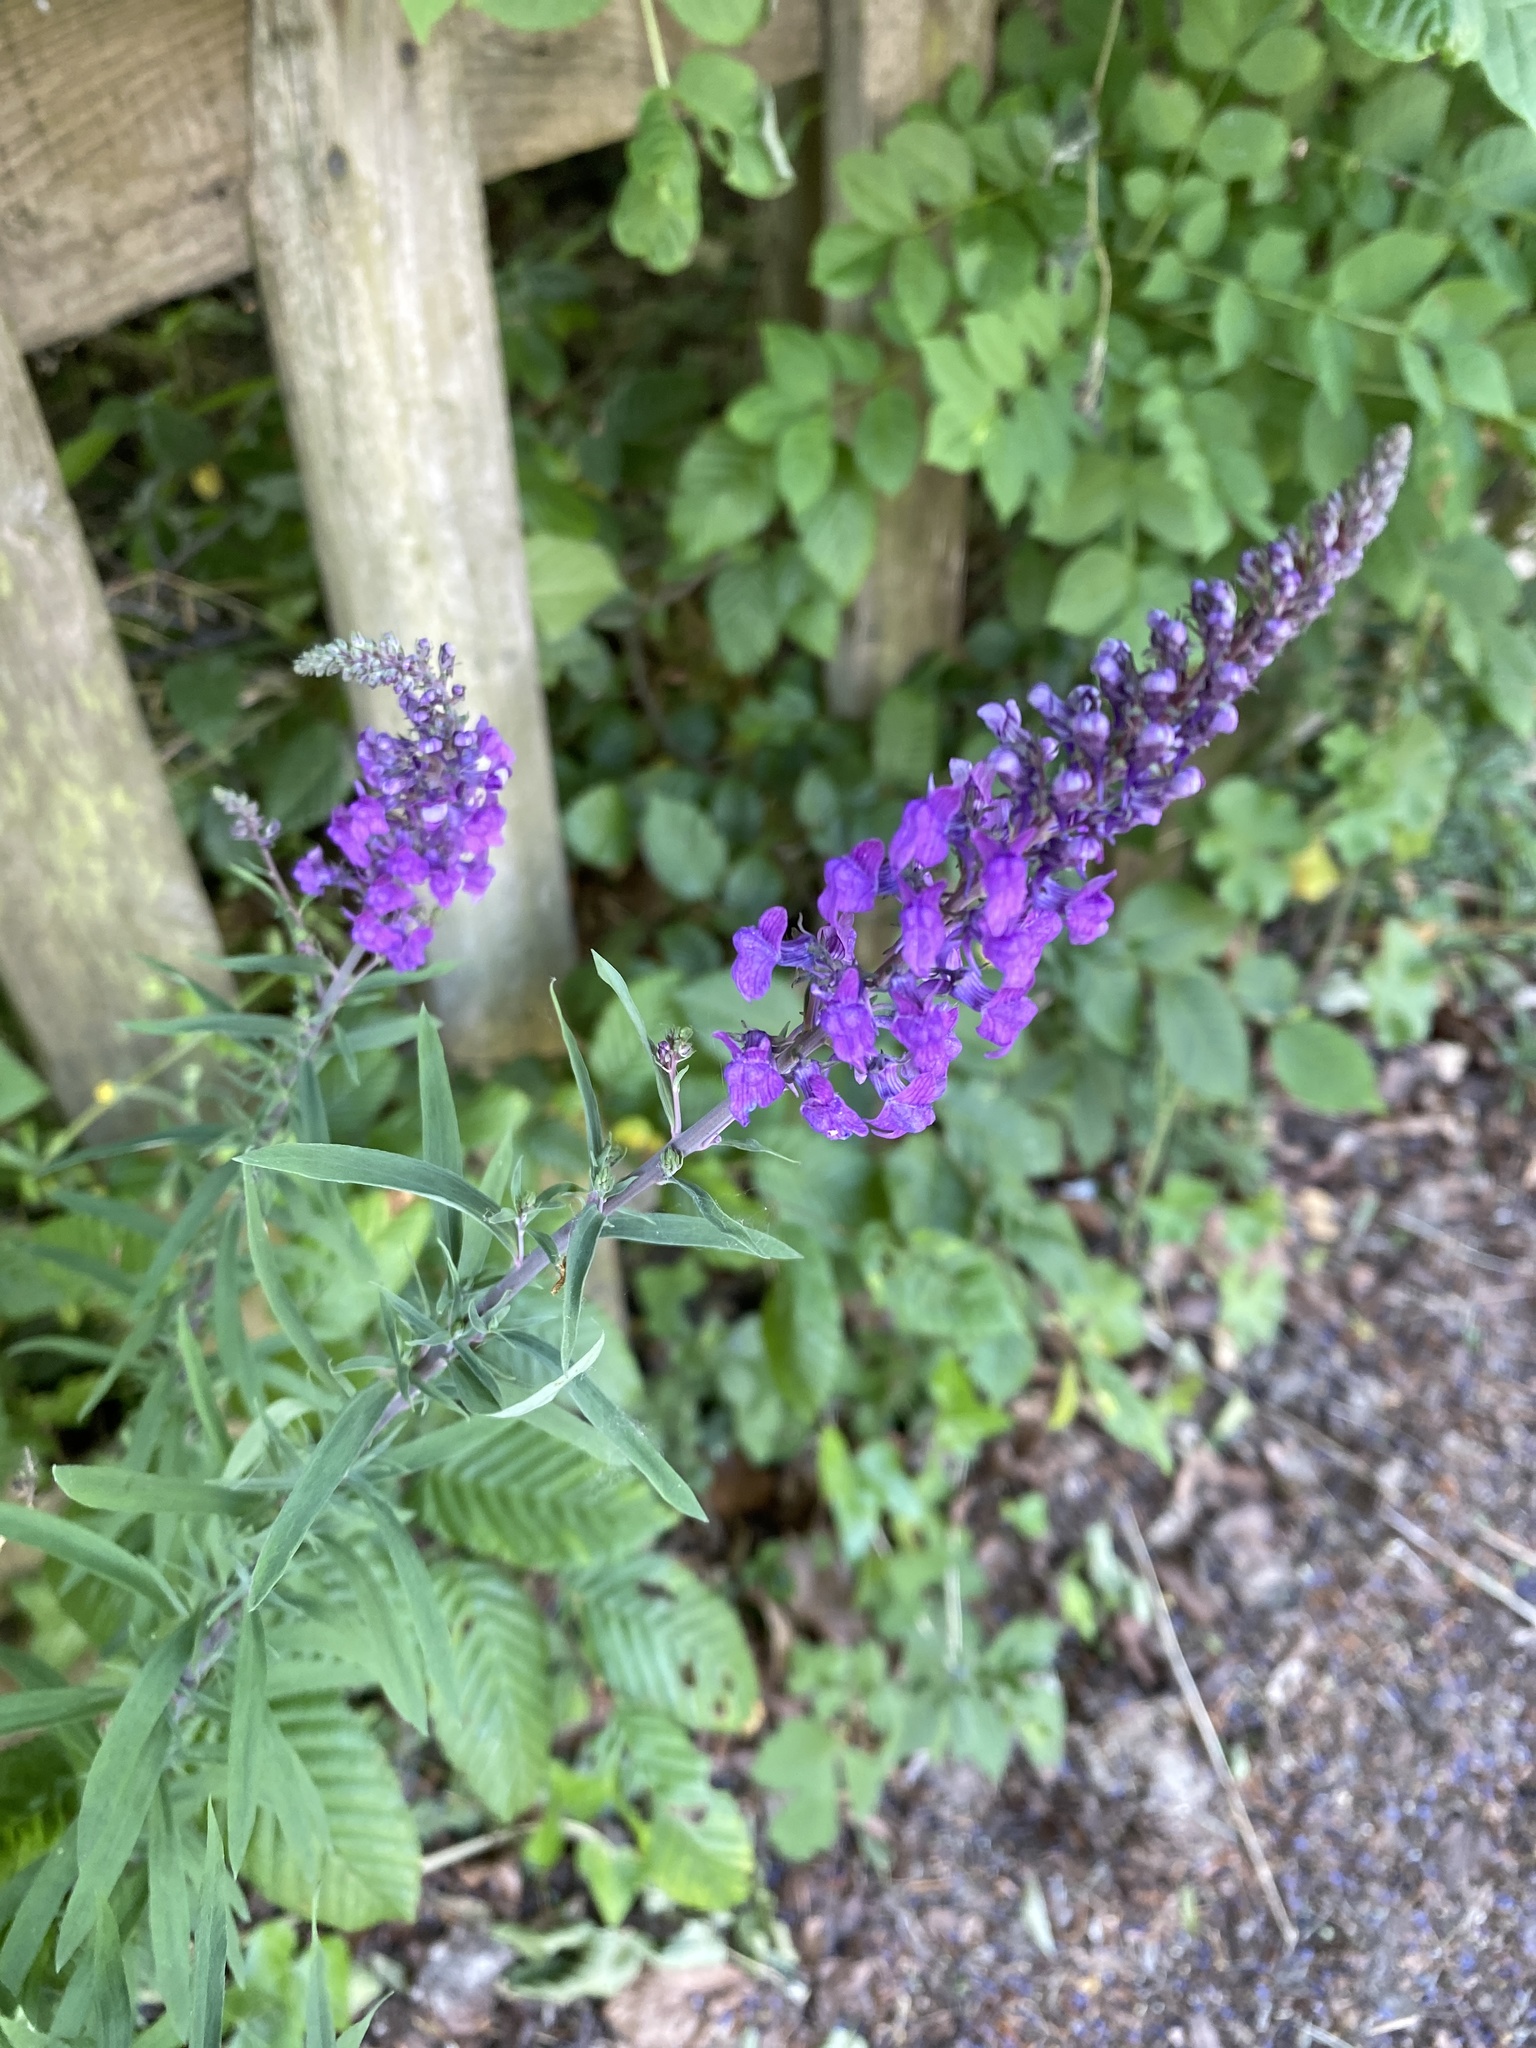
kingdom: Plantae
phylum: Tracheophyta
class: Magnoliopsida
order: Lamiales
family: Plantaginaceae
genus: Linaria
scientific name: Linaria purpurea
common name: Purple toadflax
